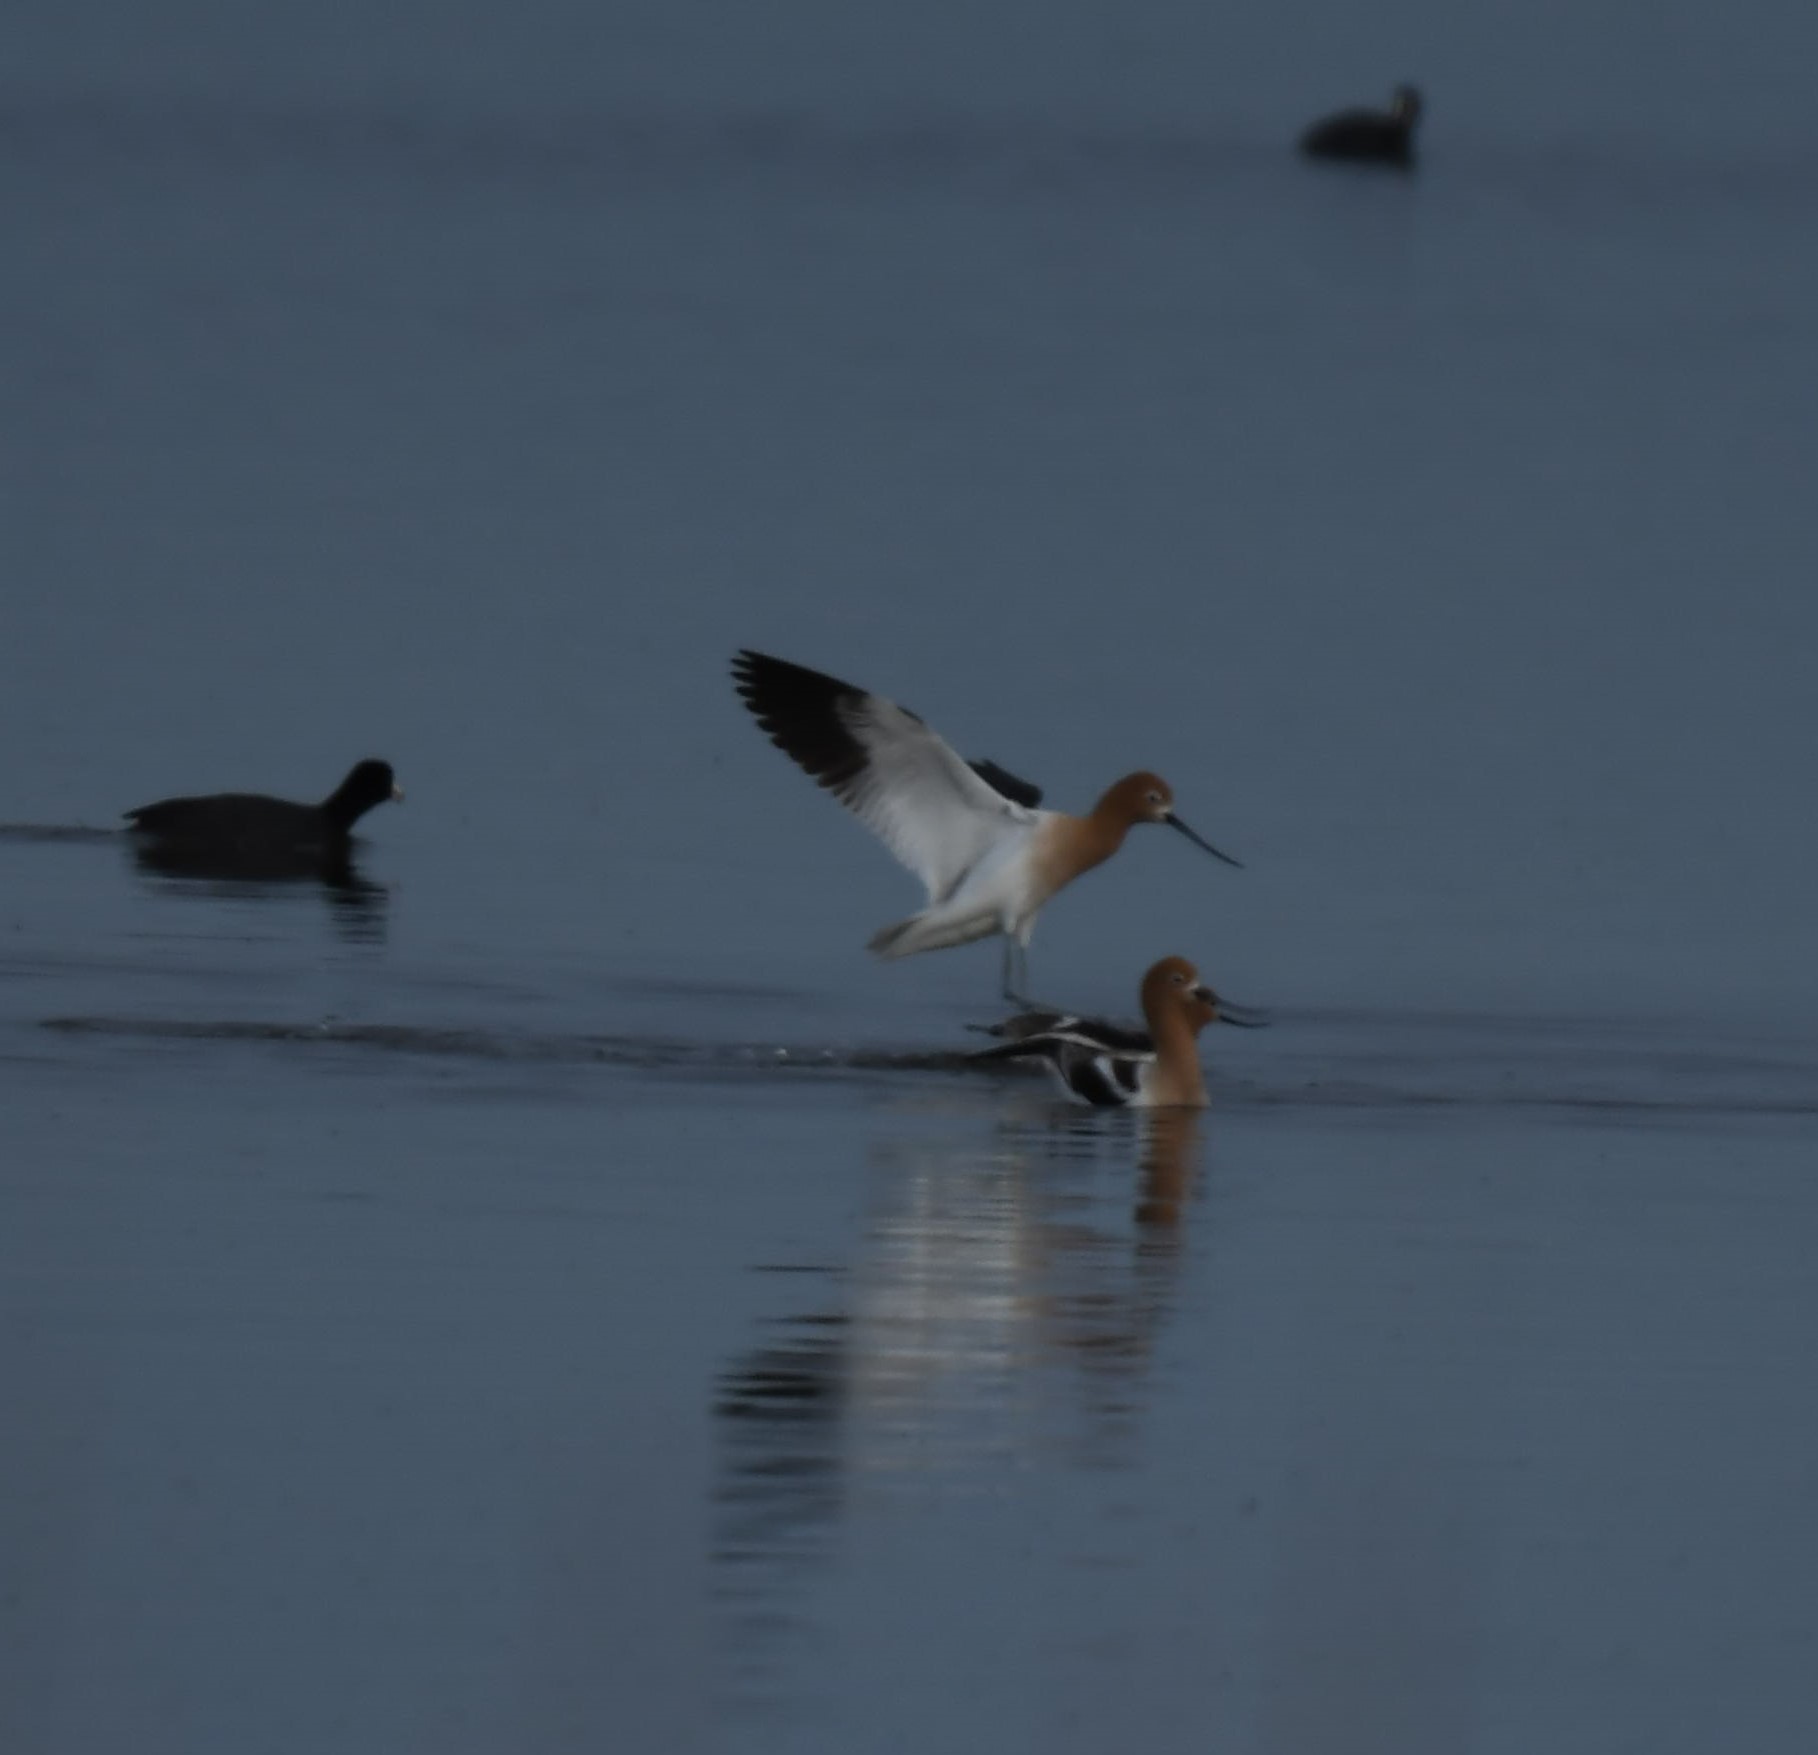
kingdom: Animalia
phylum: Chordata
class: Aves
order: Charadriiformes
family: Recurvirostridae
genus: Recurvirostra
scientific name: Recurvirostra americana
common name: American avocet
